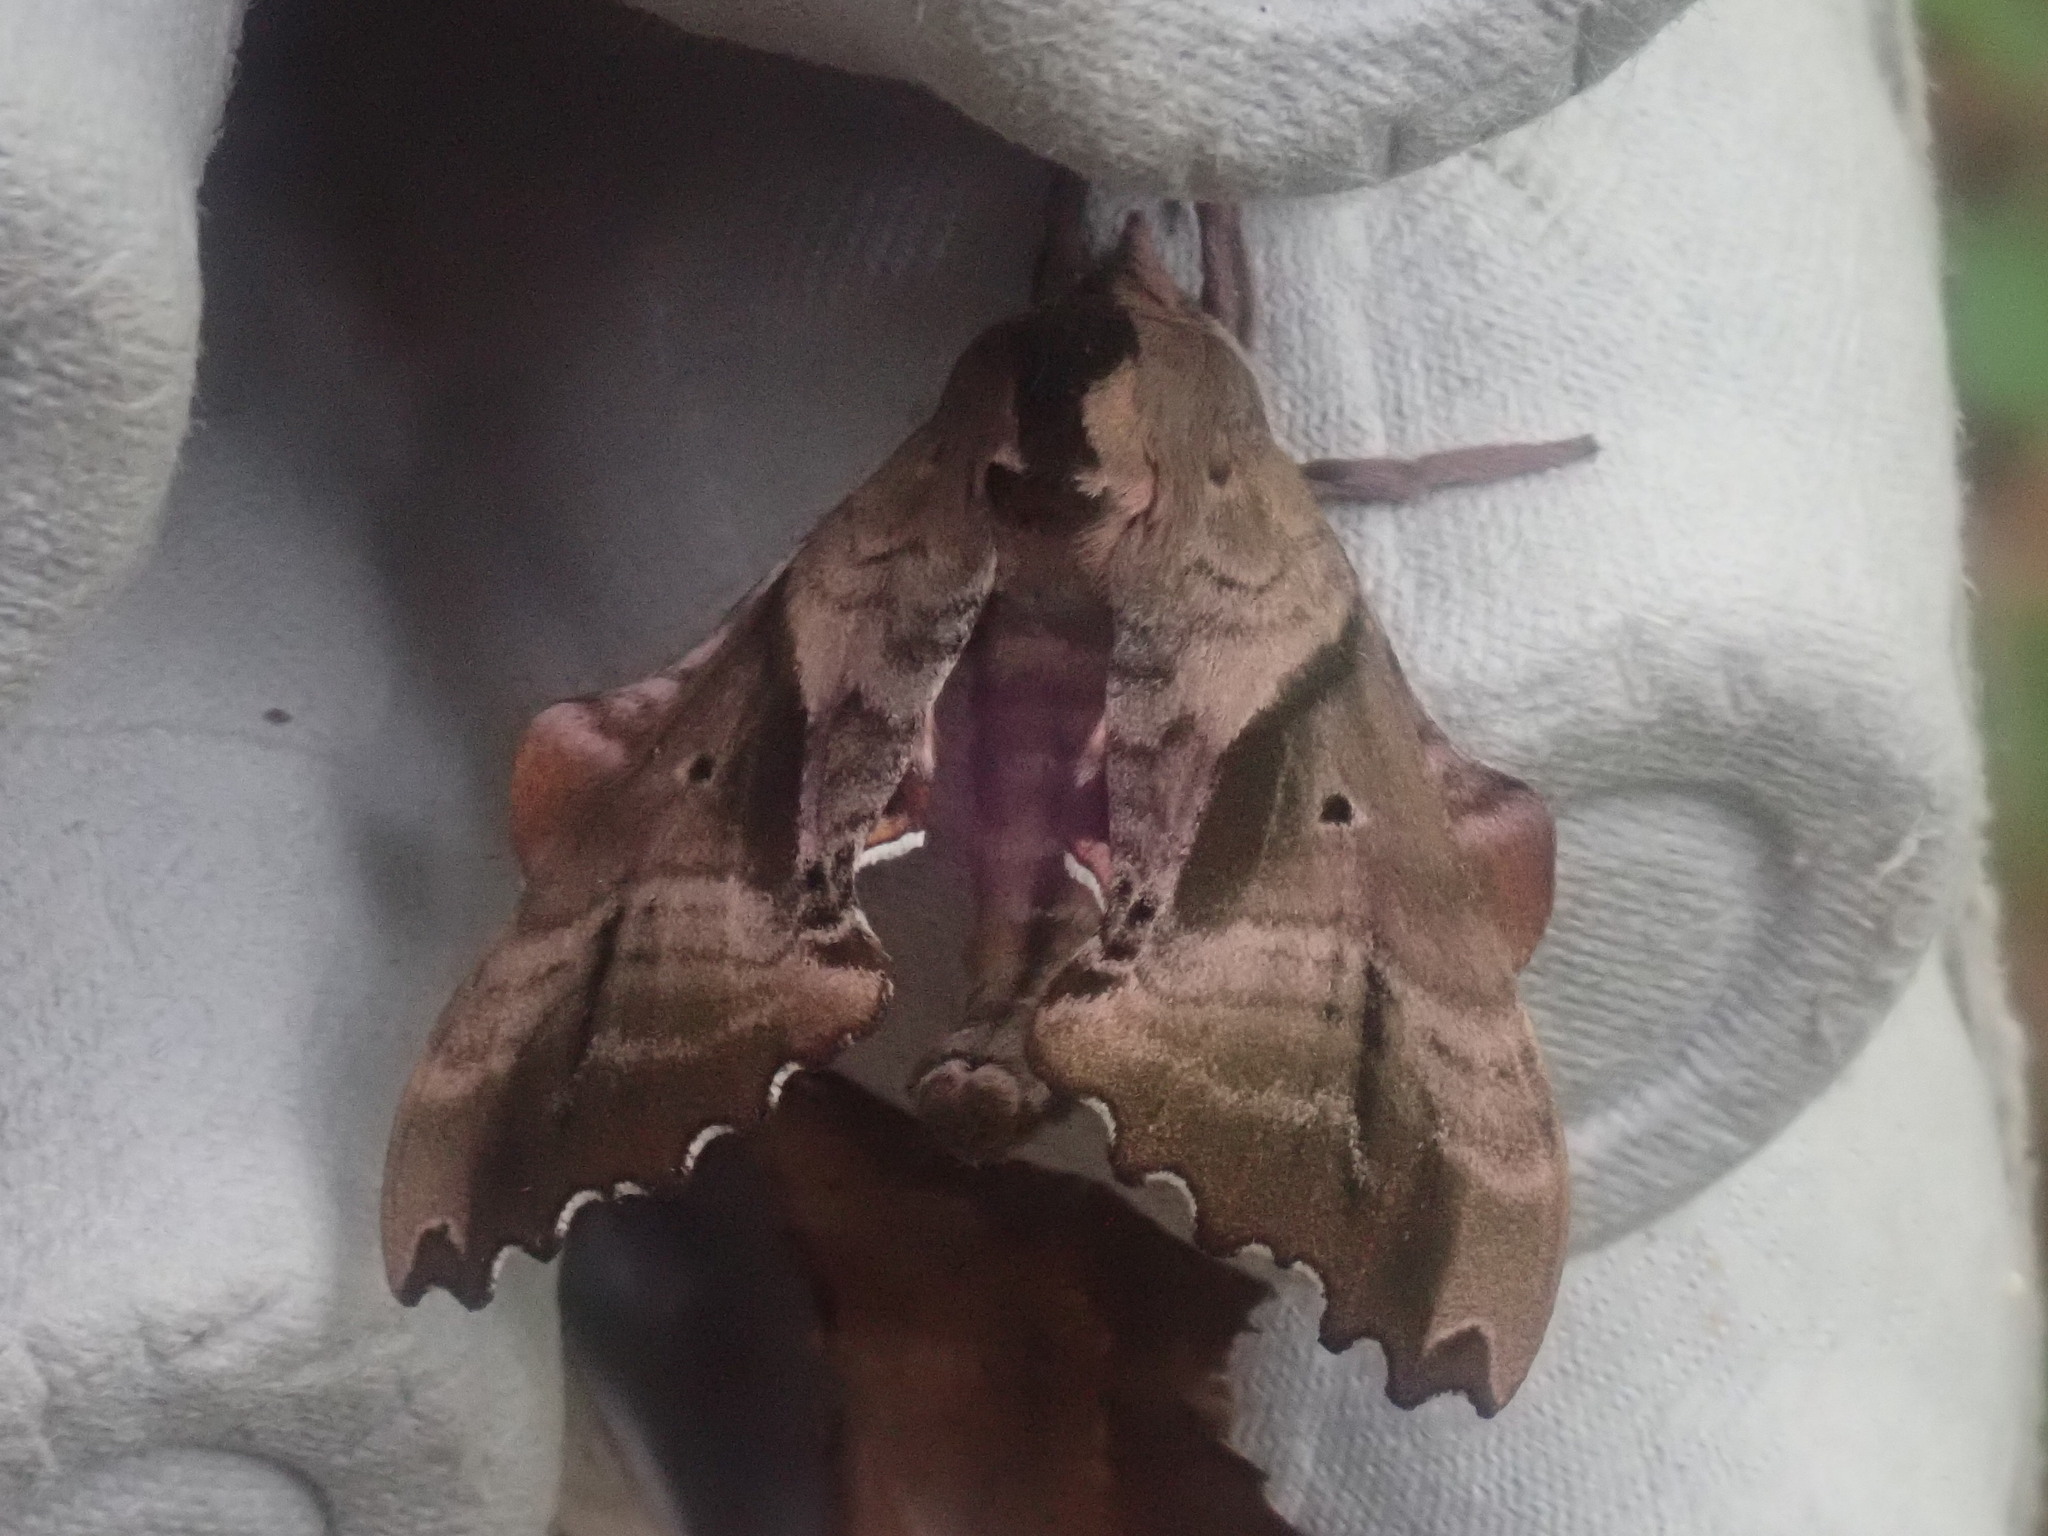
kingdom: Animalia
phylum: Arthropoda
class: Insecta
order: Lepidoptera
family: Sphingidae
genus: Paonias
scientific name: Paonias excaecata
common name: Blind-eyed sphinx
